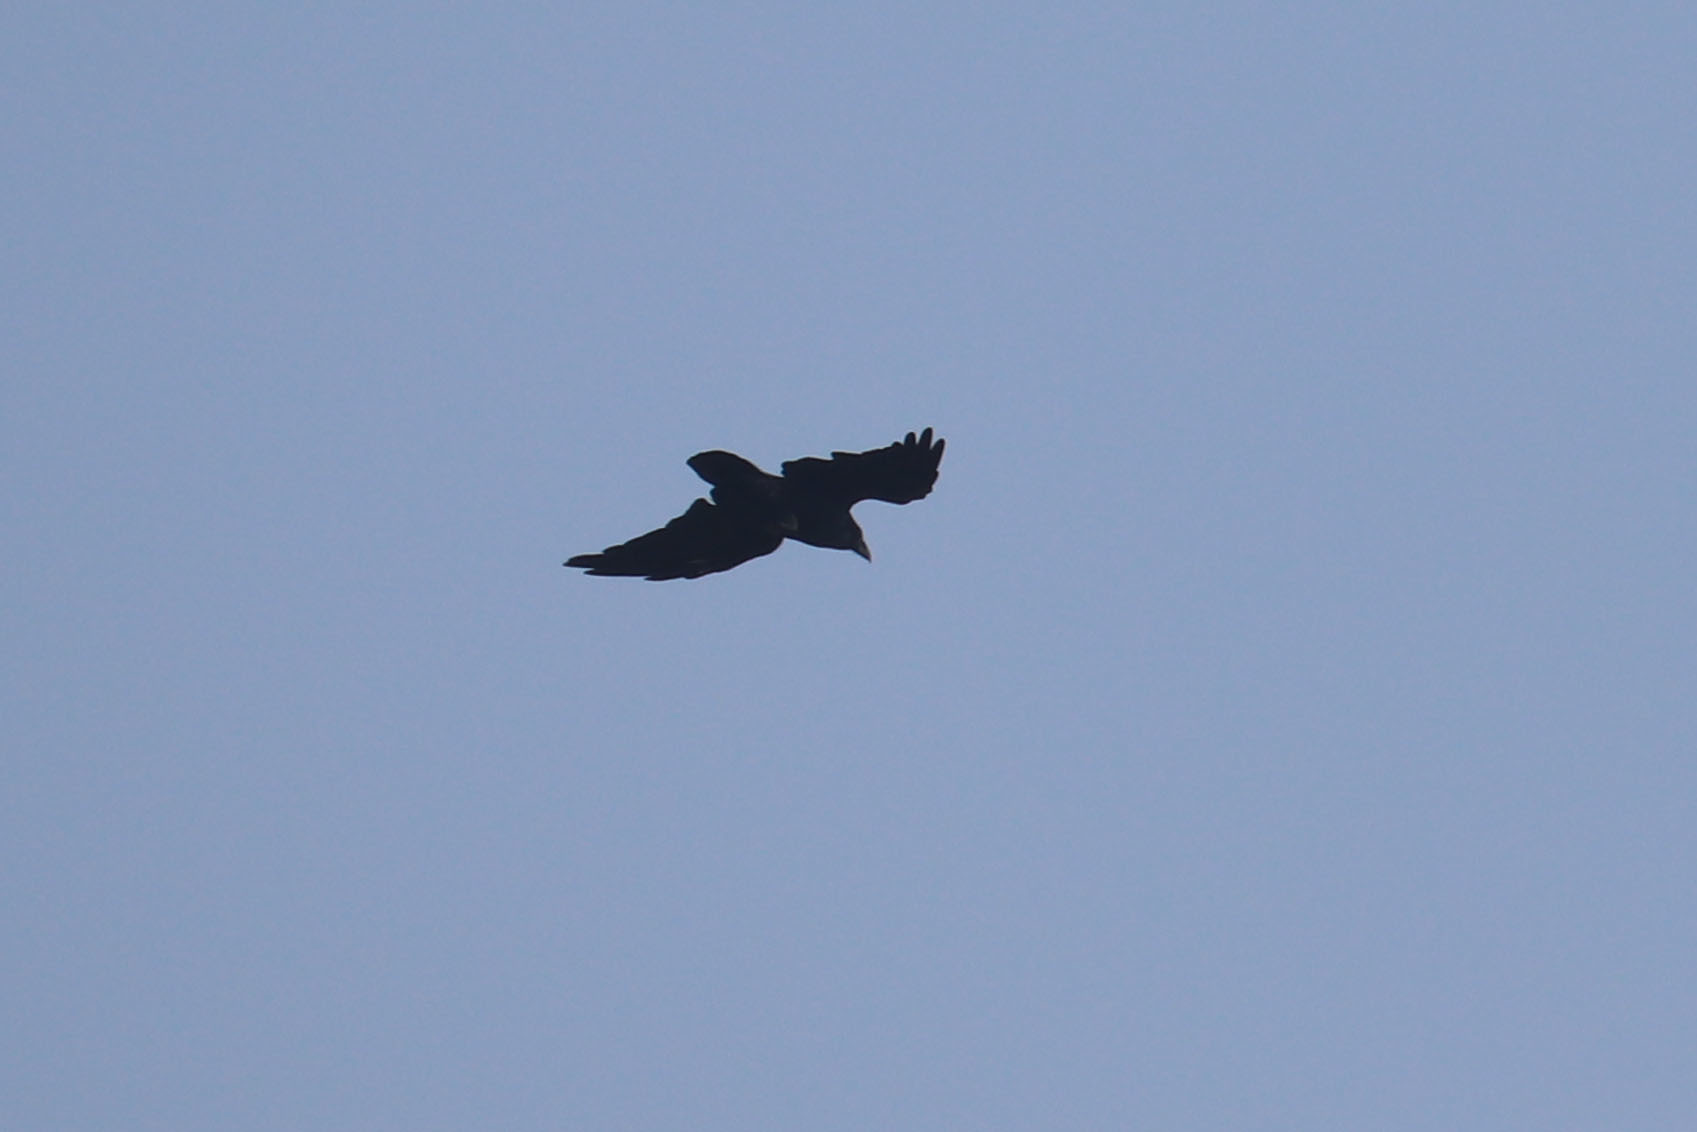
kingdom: Animalia
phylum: Chordata
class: Aves
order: Passeriformes
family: Corvidae
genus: Corvus
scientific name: Corvus corax
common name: Common raven
